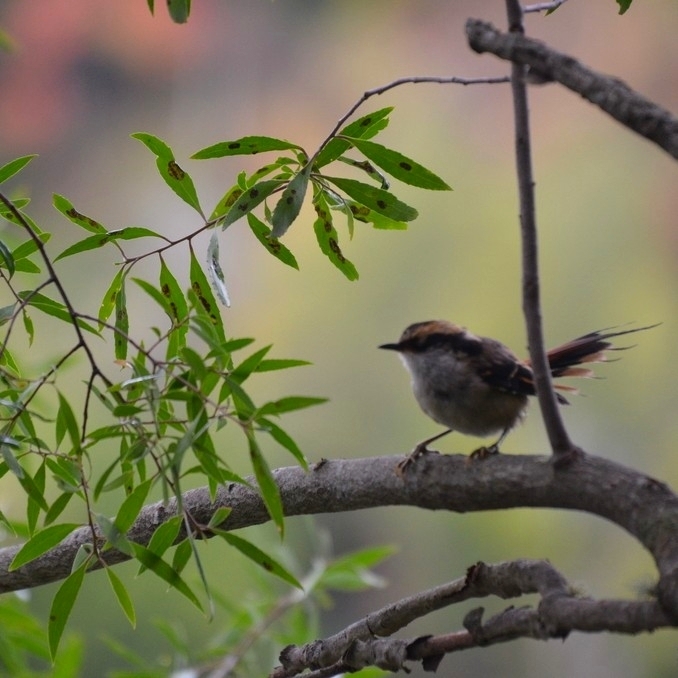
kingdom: Animalia
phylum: Chordata
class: Aves
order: Passeriformes
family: Furnariidae
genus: Aphrastura
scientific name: Aphrastura spinicauda
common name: Thorn-tailed rayadito
